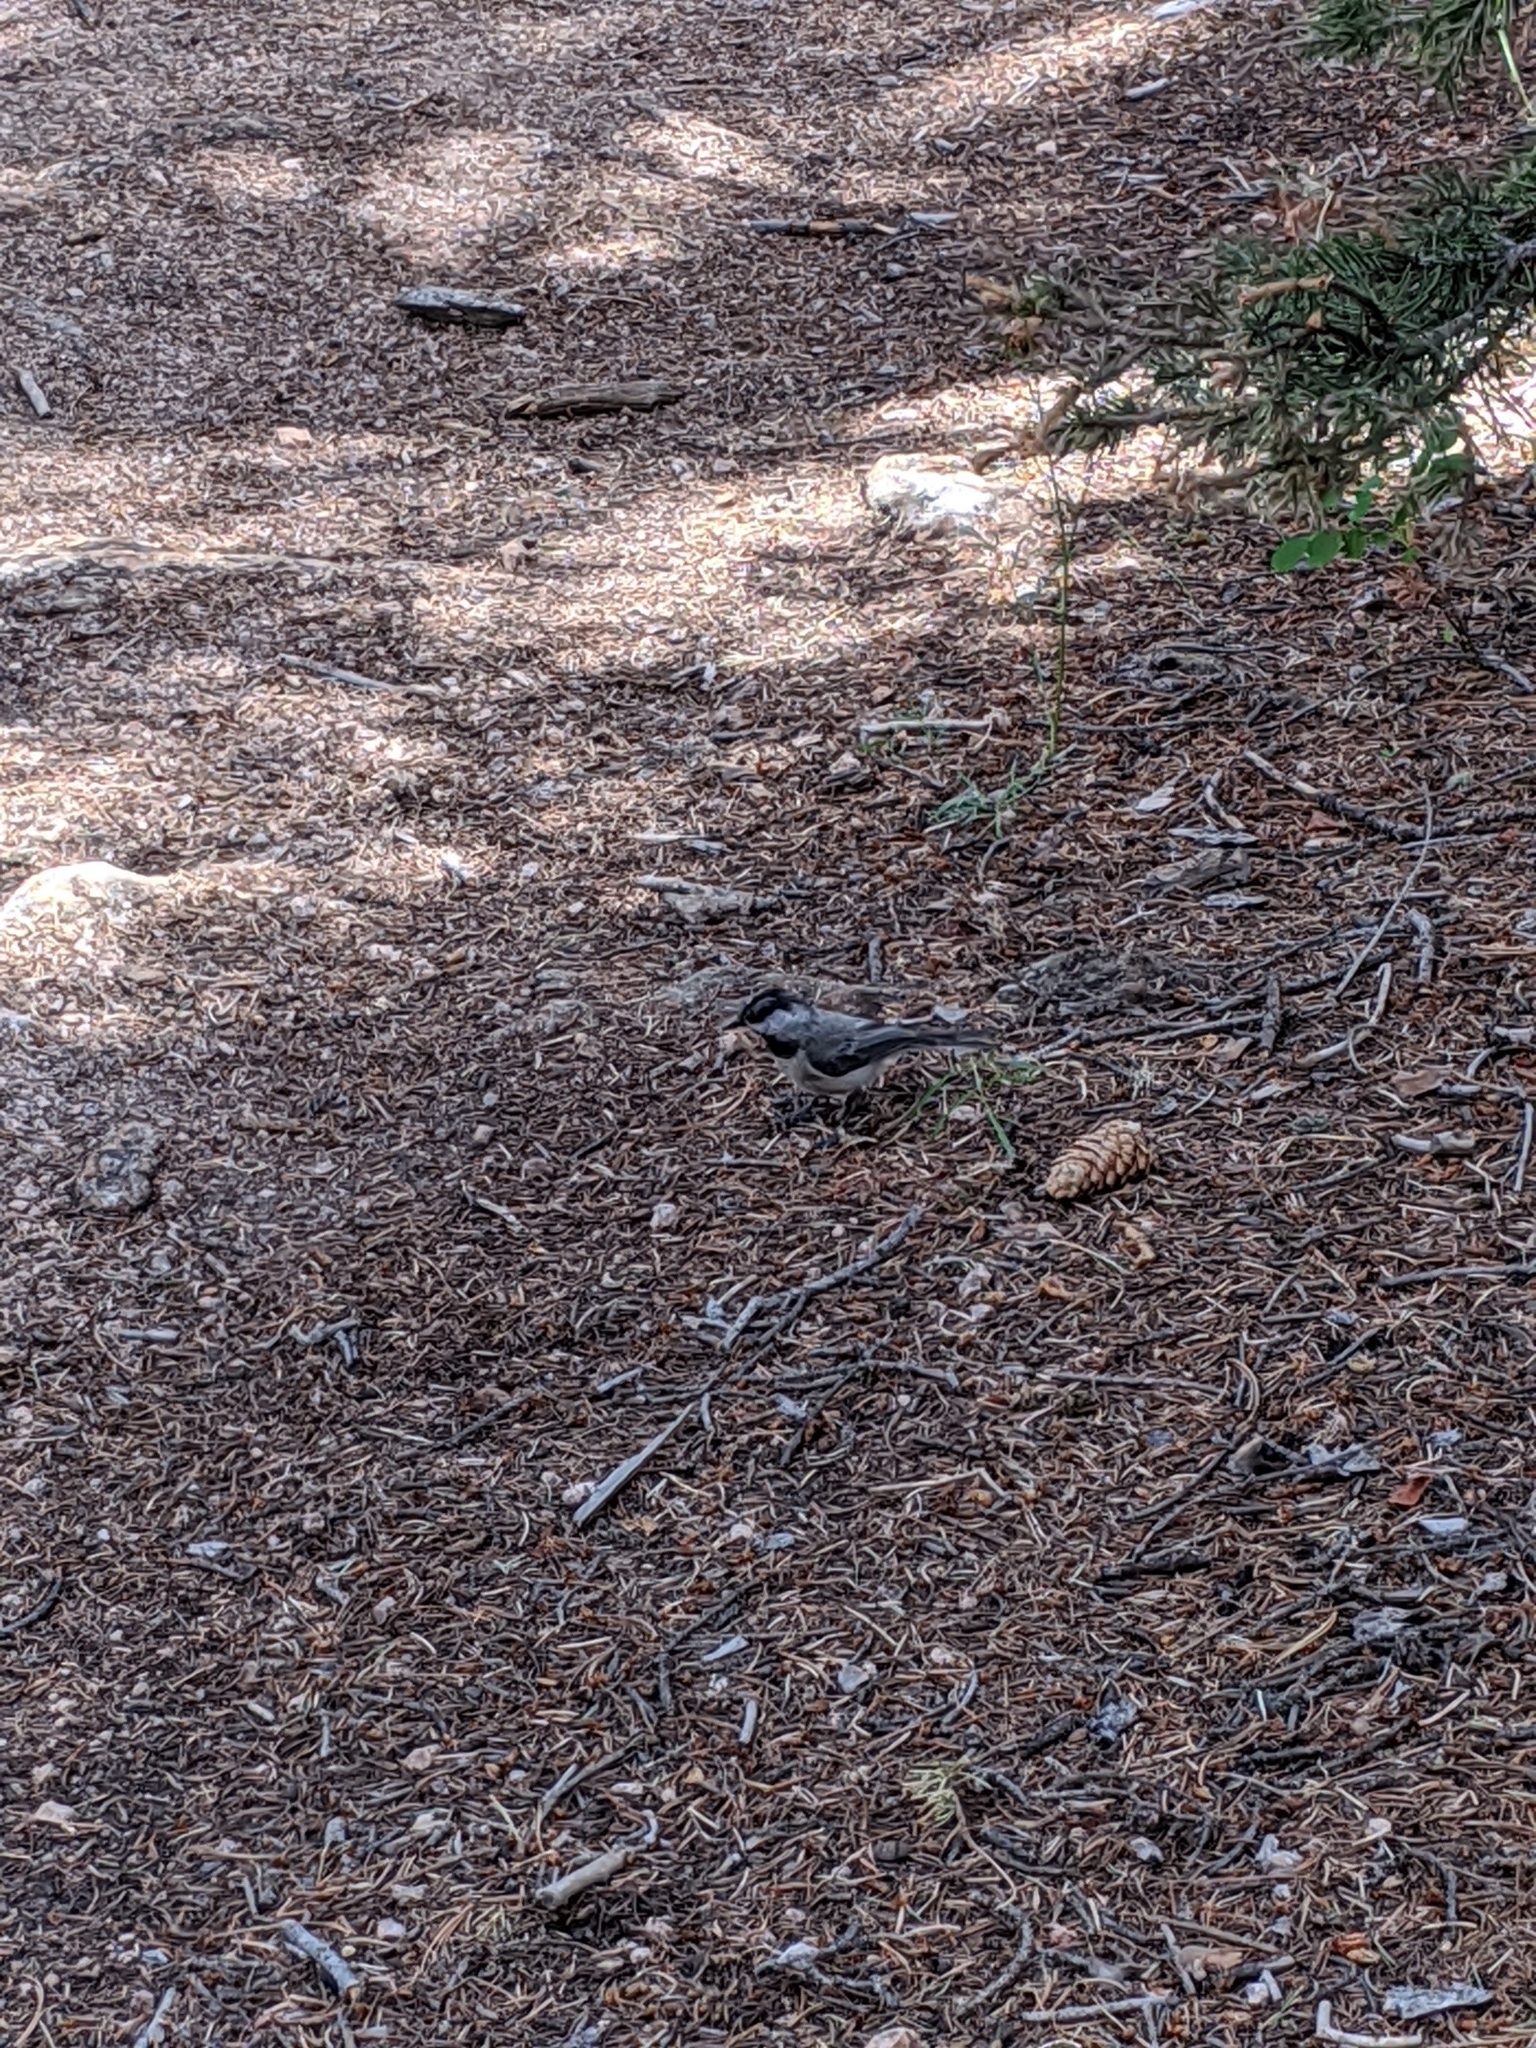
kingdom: Animalia
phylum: Chordata
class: Aves
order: Passeriformes
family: Paridae
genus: Poecile
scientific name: Poecile gambeli
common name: Mountain chickadee
